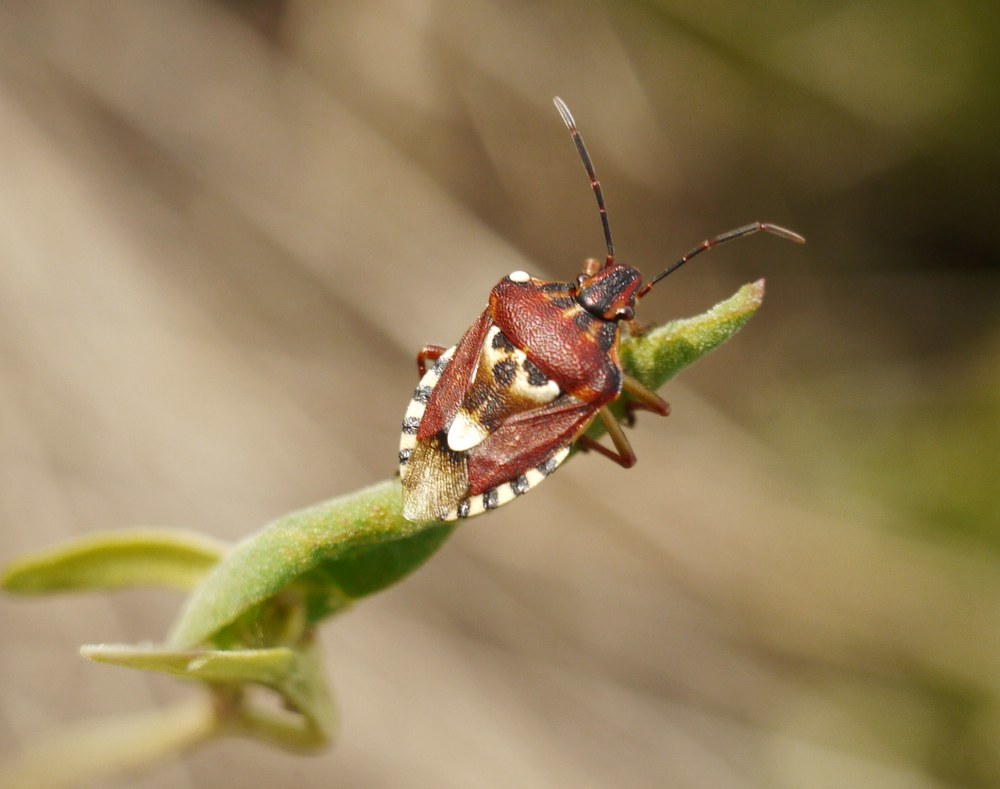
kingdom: Animalia
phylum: Arthropoda
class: Insecta
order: Hemiptera
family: Miridae
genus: Orthops
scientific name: Orthops kalmii
